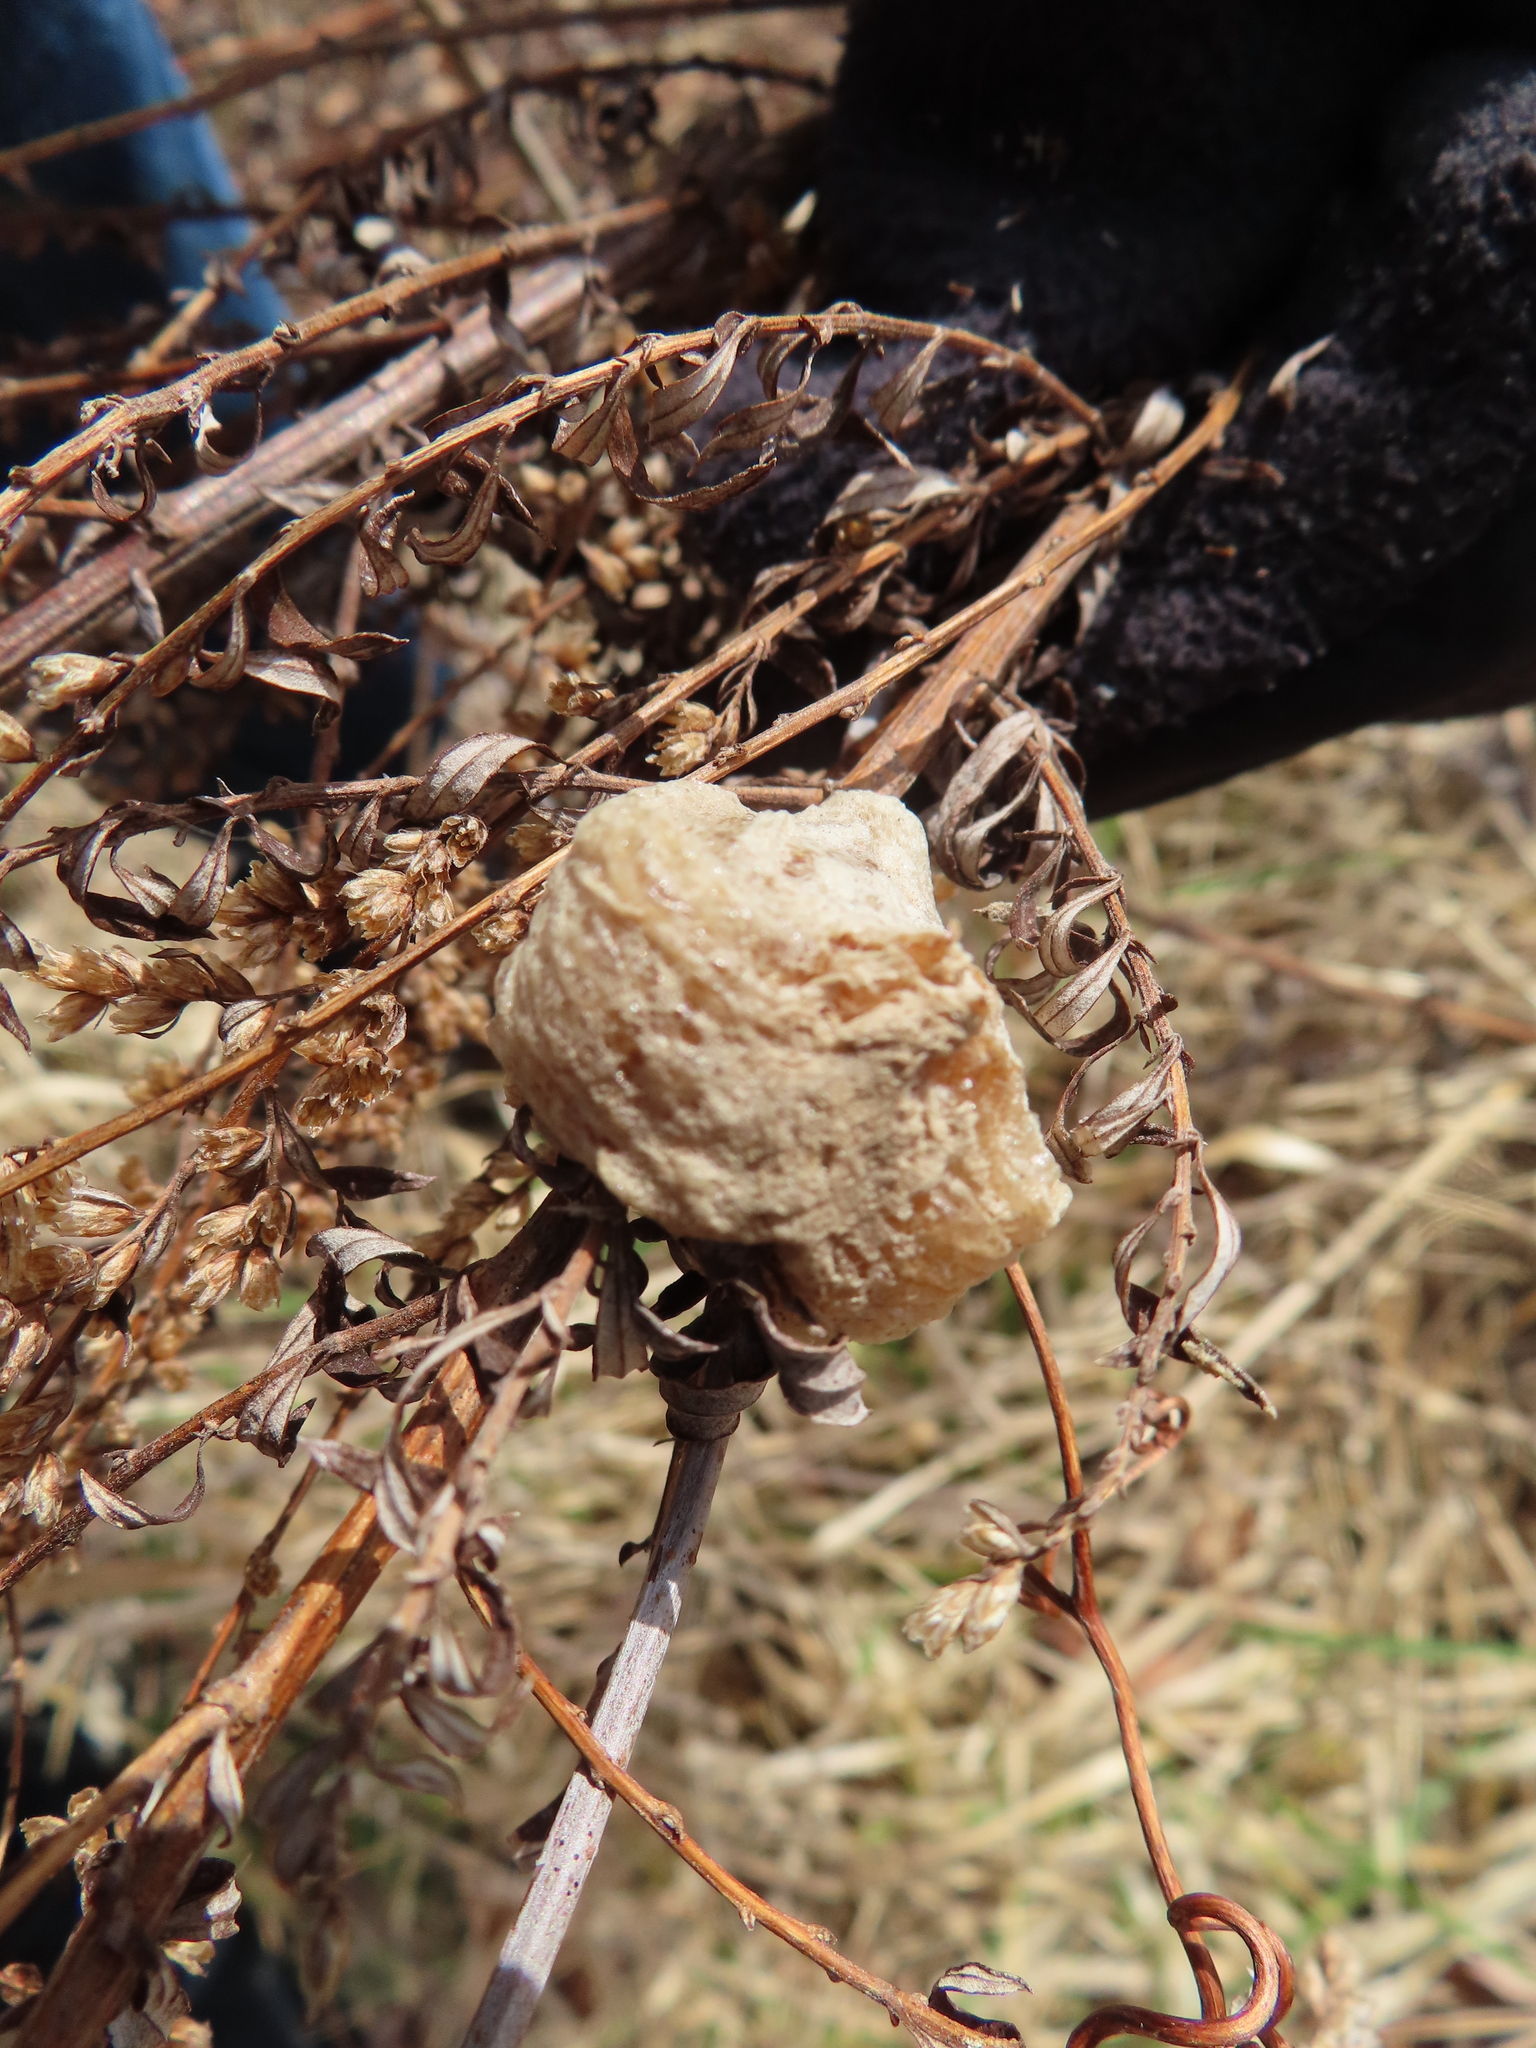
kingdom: Animalia
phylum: Arthropoda
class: Insecta
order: Mantodea
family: Mantidae
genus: Tenodera
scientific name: Tenodera sinensis
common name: Chinese mantis
